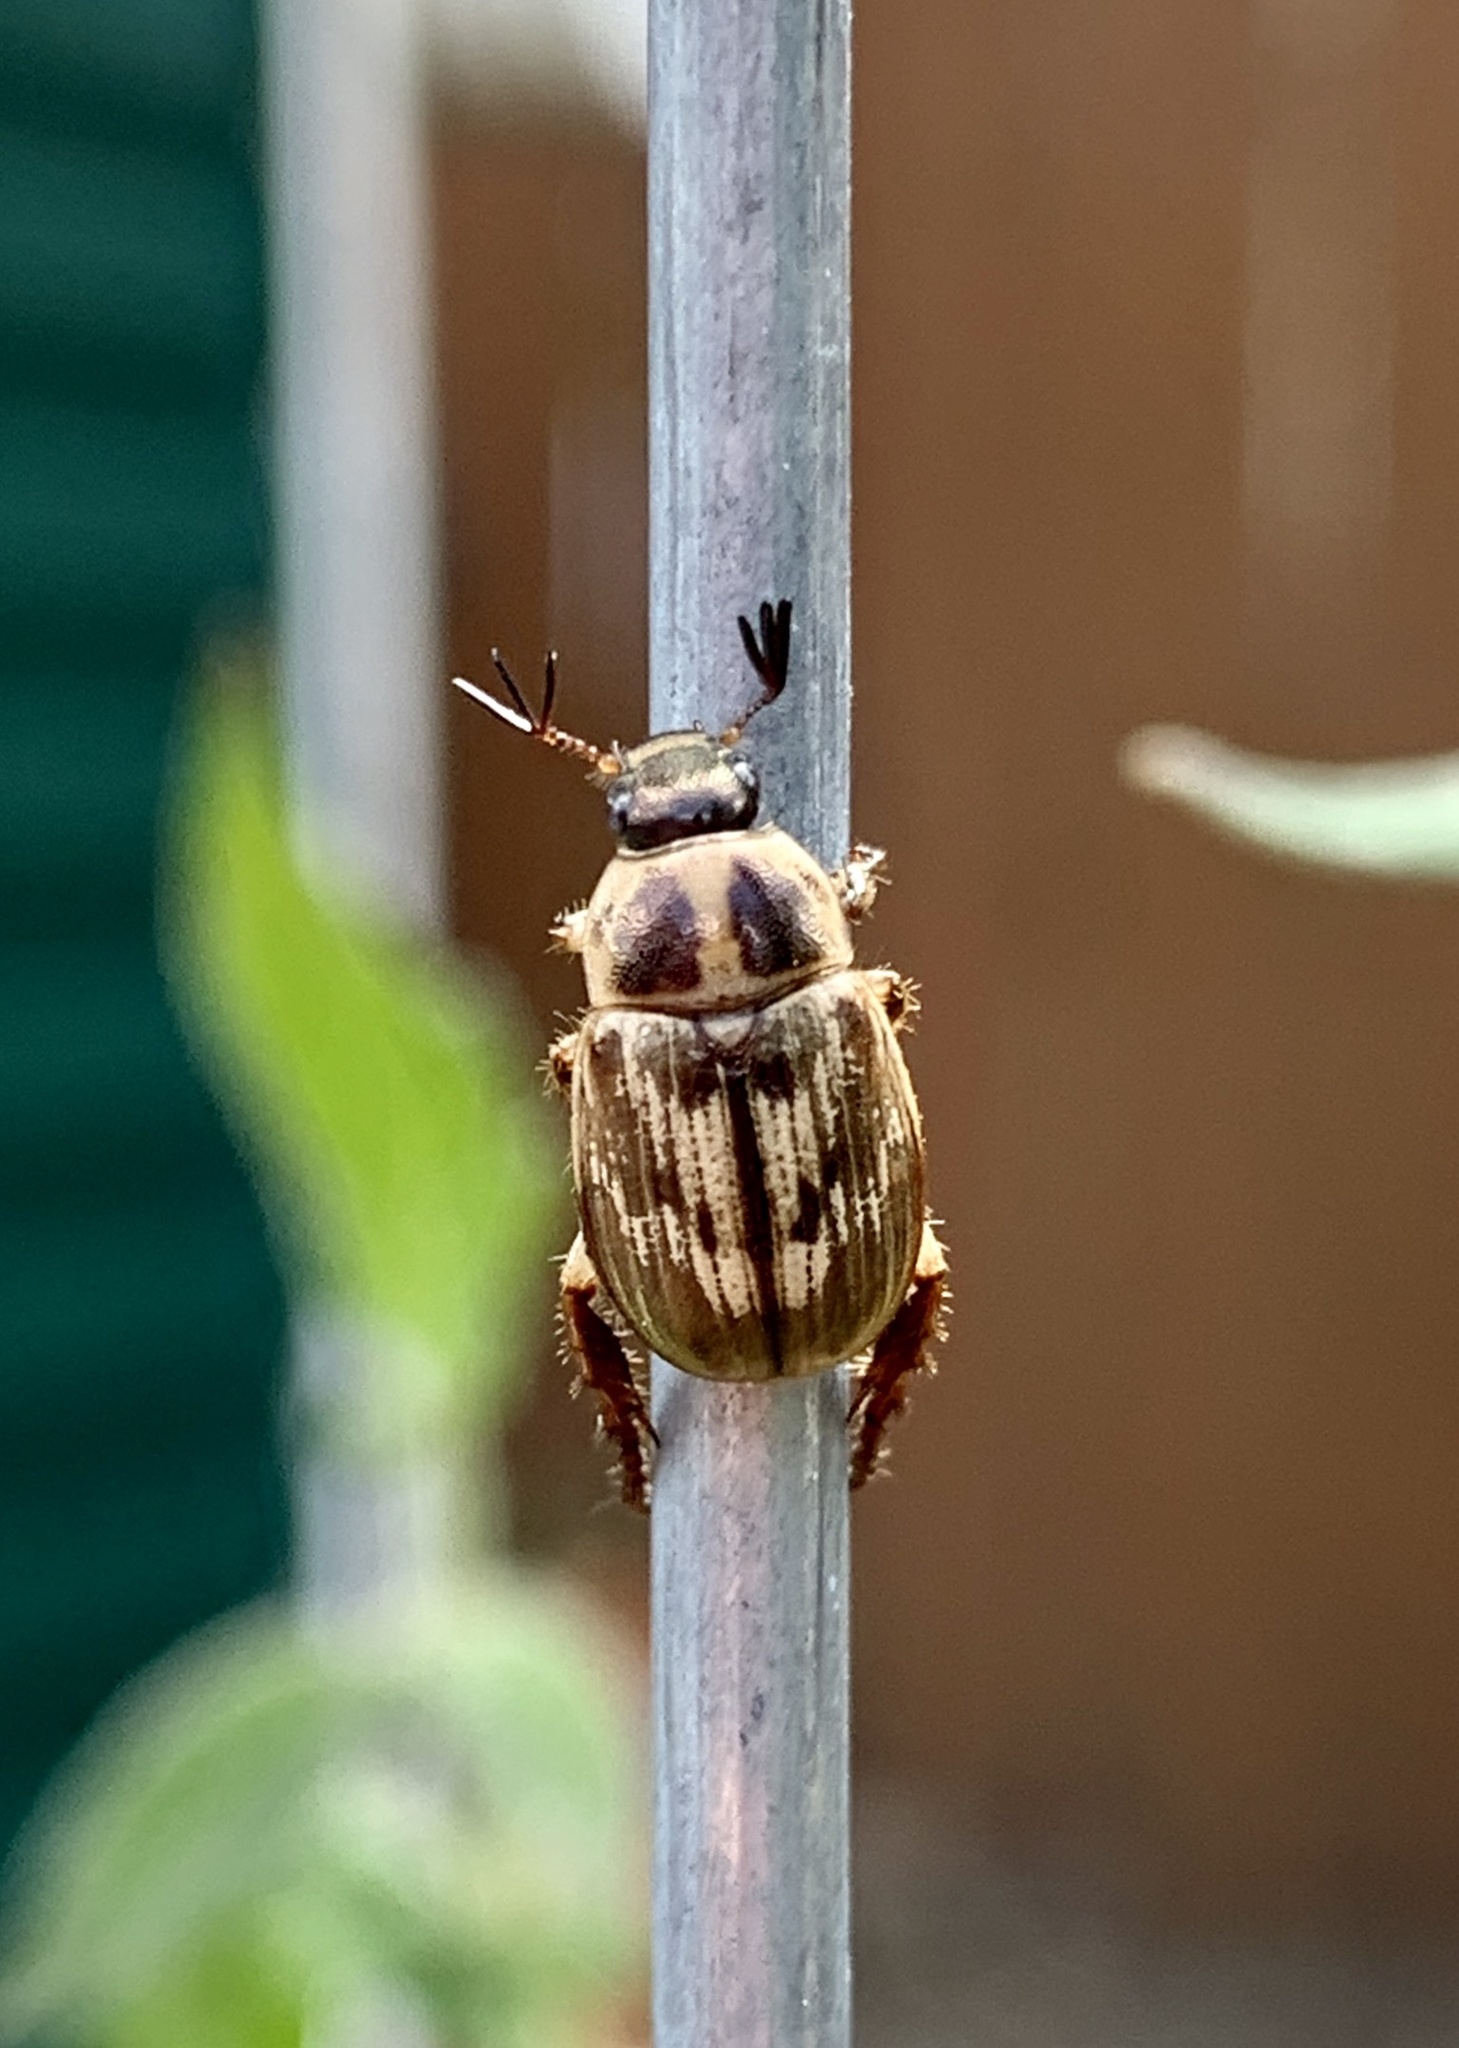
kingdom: Animalia
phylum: Arthropoda
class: Insecta
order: Coleoptera
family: Scarabaeidae
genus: Exomala
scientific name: Exomala orientalis
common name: Oriental beetle
